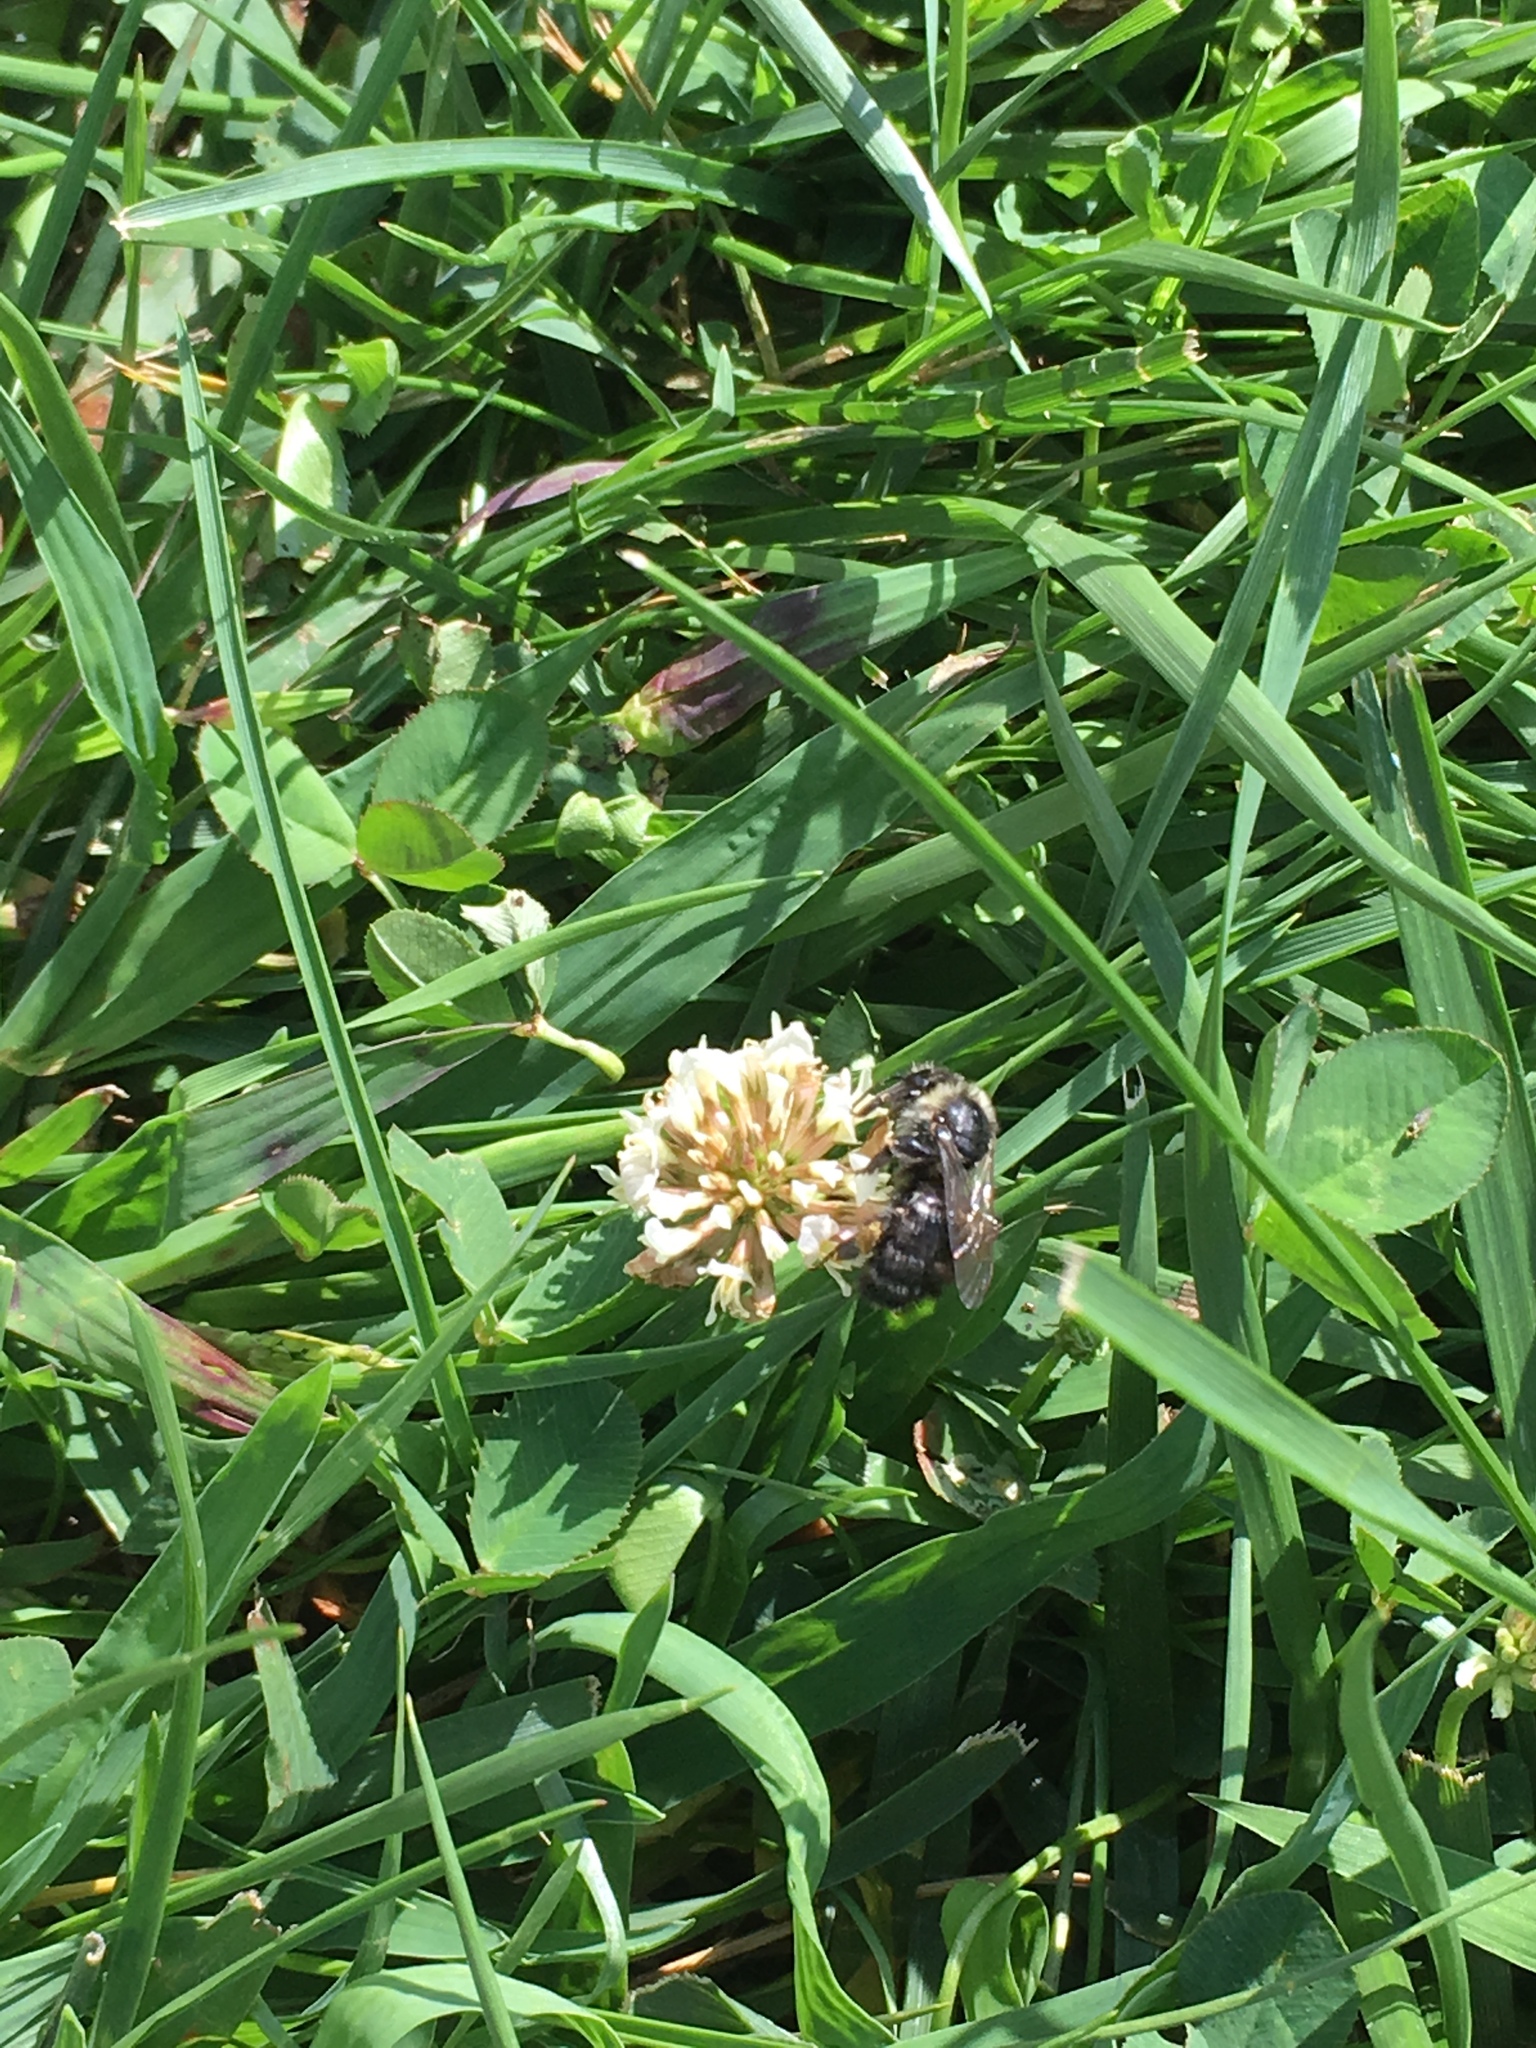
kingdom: Animalia
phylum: Arthropoda
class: Insecta
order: Hymenoptera
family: Apidae
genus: Bombus
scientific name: Bombus impatiens
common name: Common eastern bumble bee
